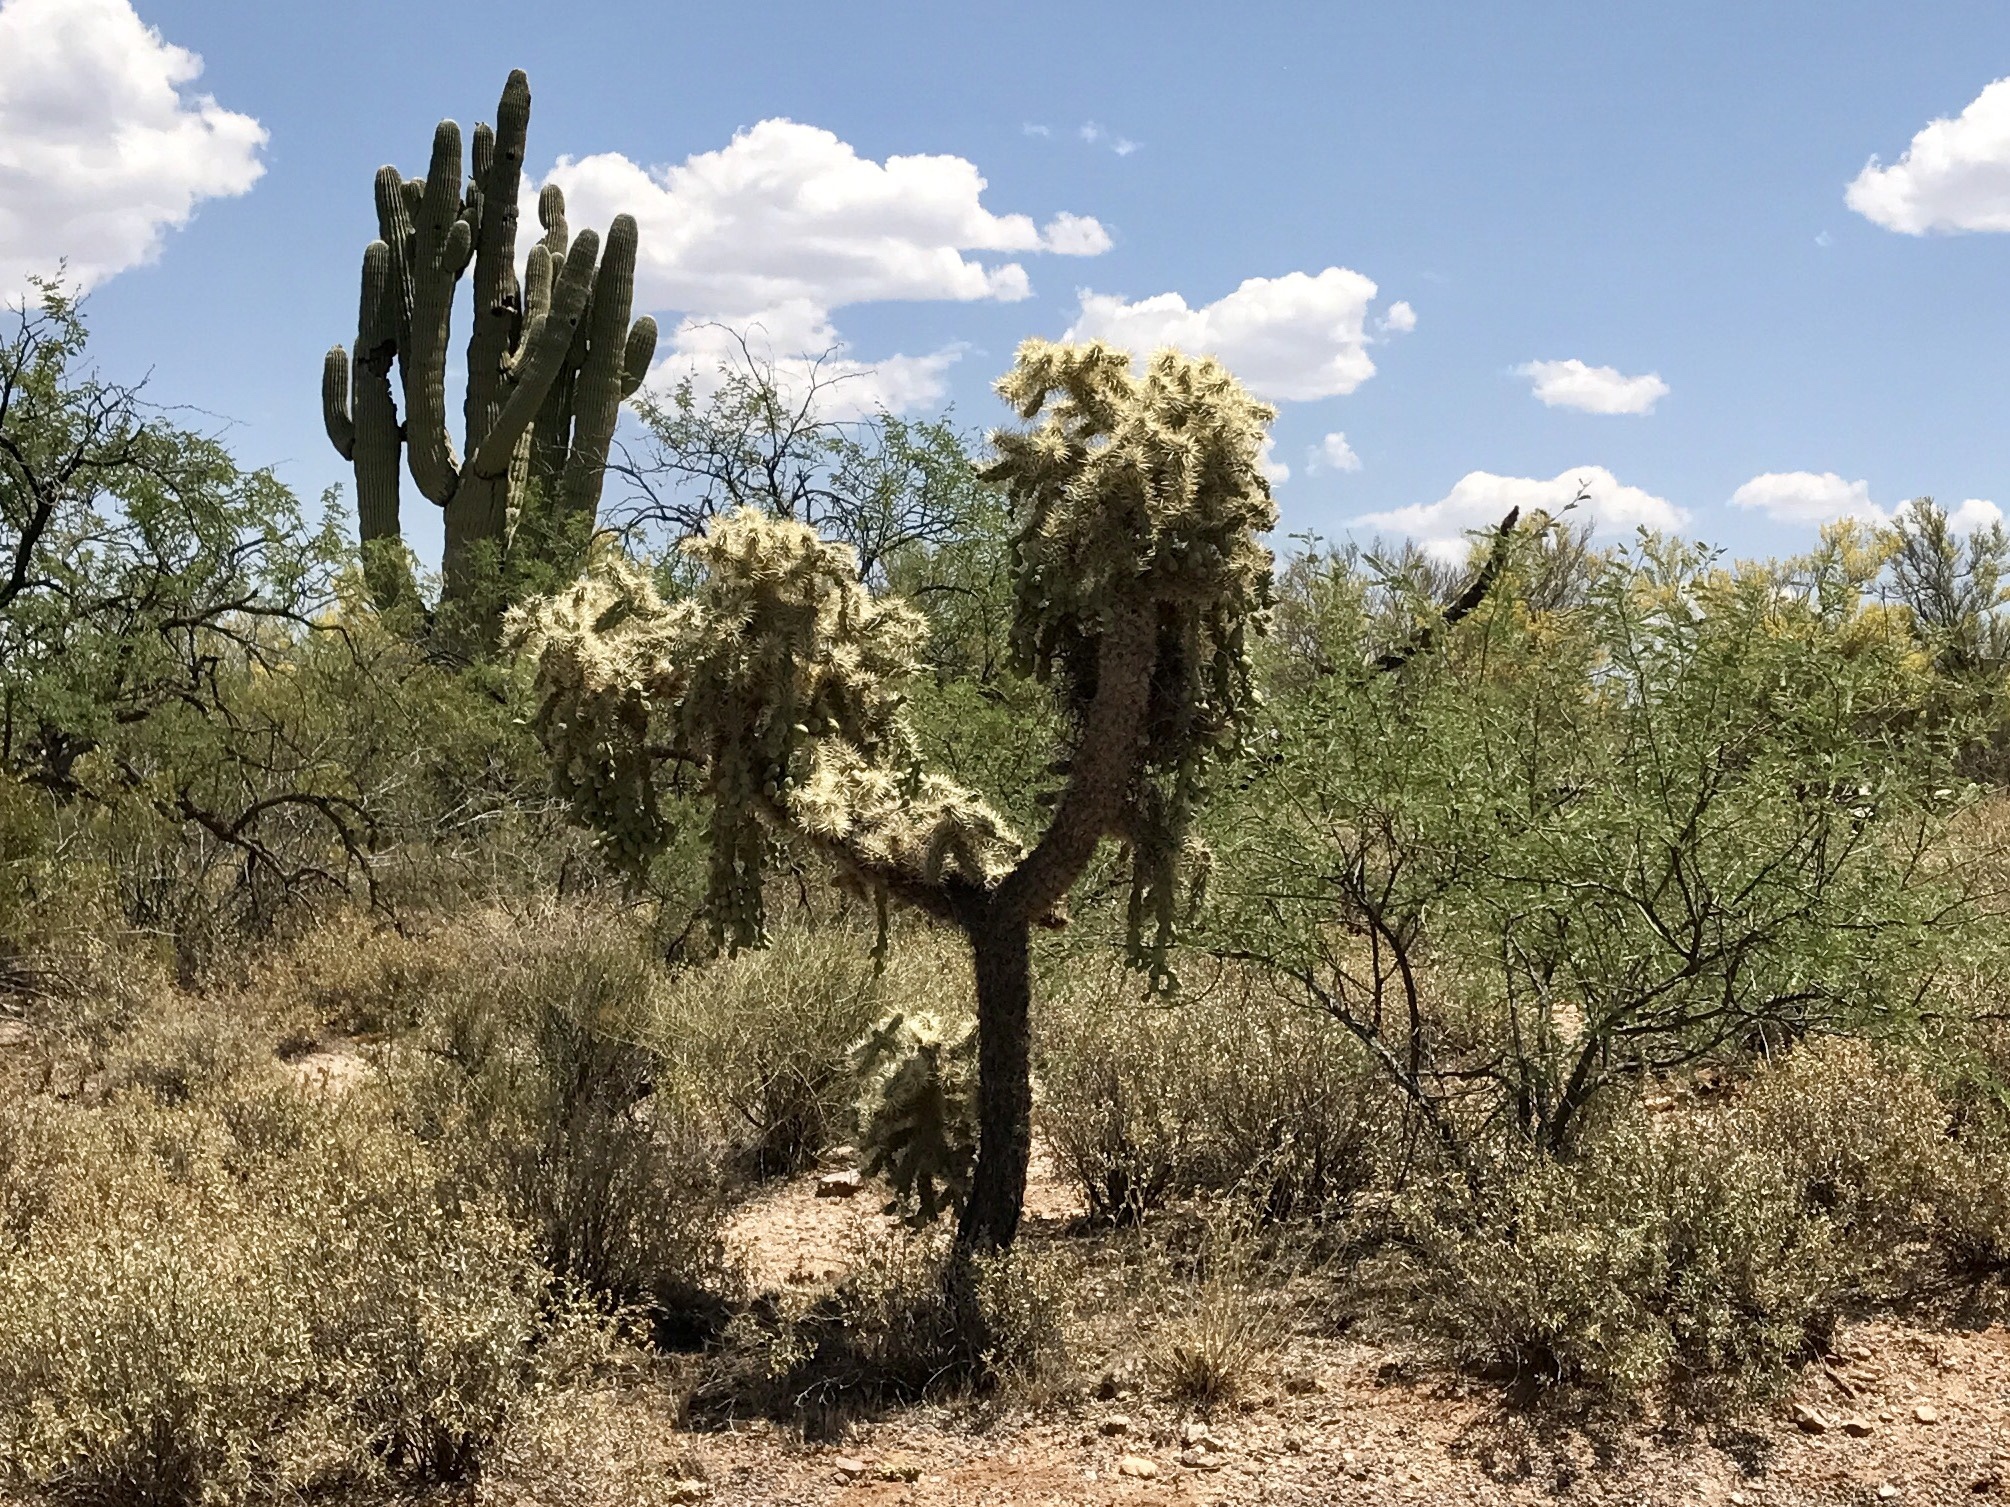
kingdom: Plantae
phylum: Tracheophyta
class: Magnoliopsida
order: Caryophyllales
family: Cactaceae
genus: Cylindropuntia
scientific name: Cylindropuntia fulgida
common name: Jumping cholla
